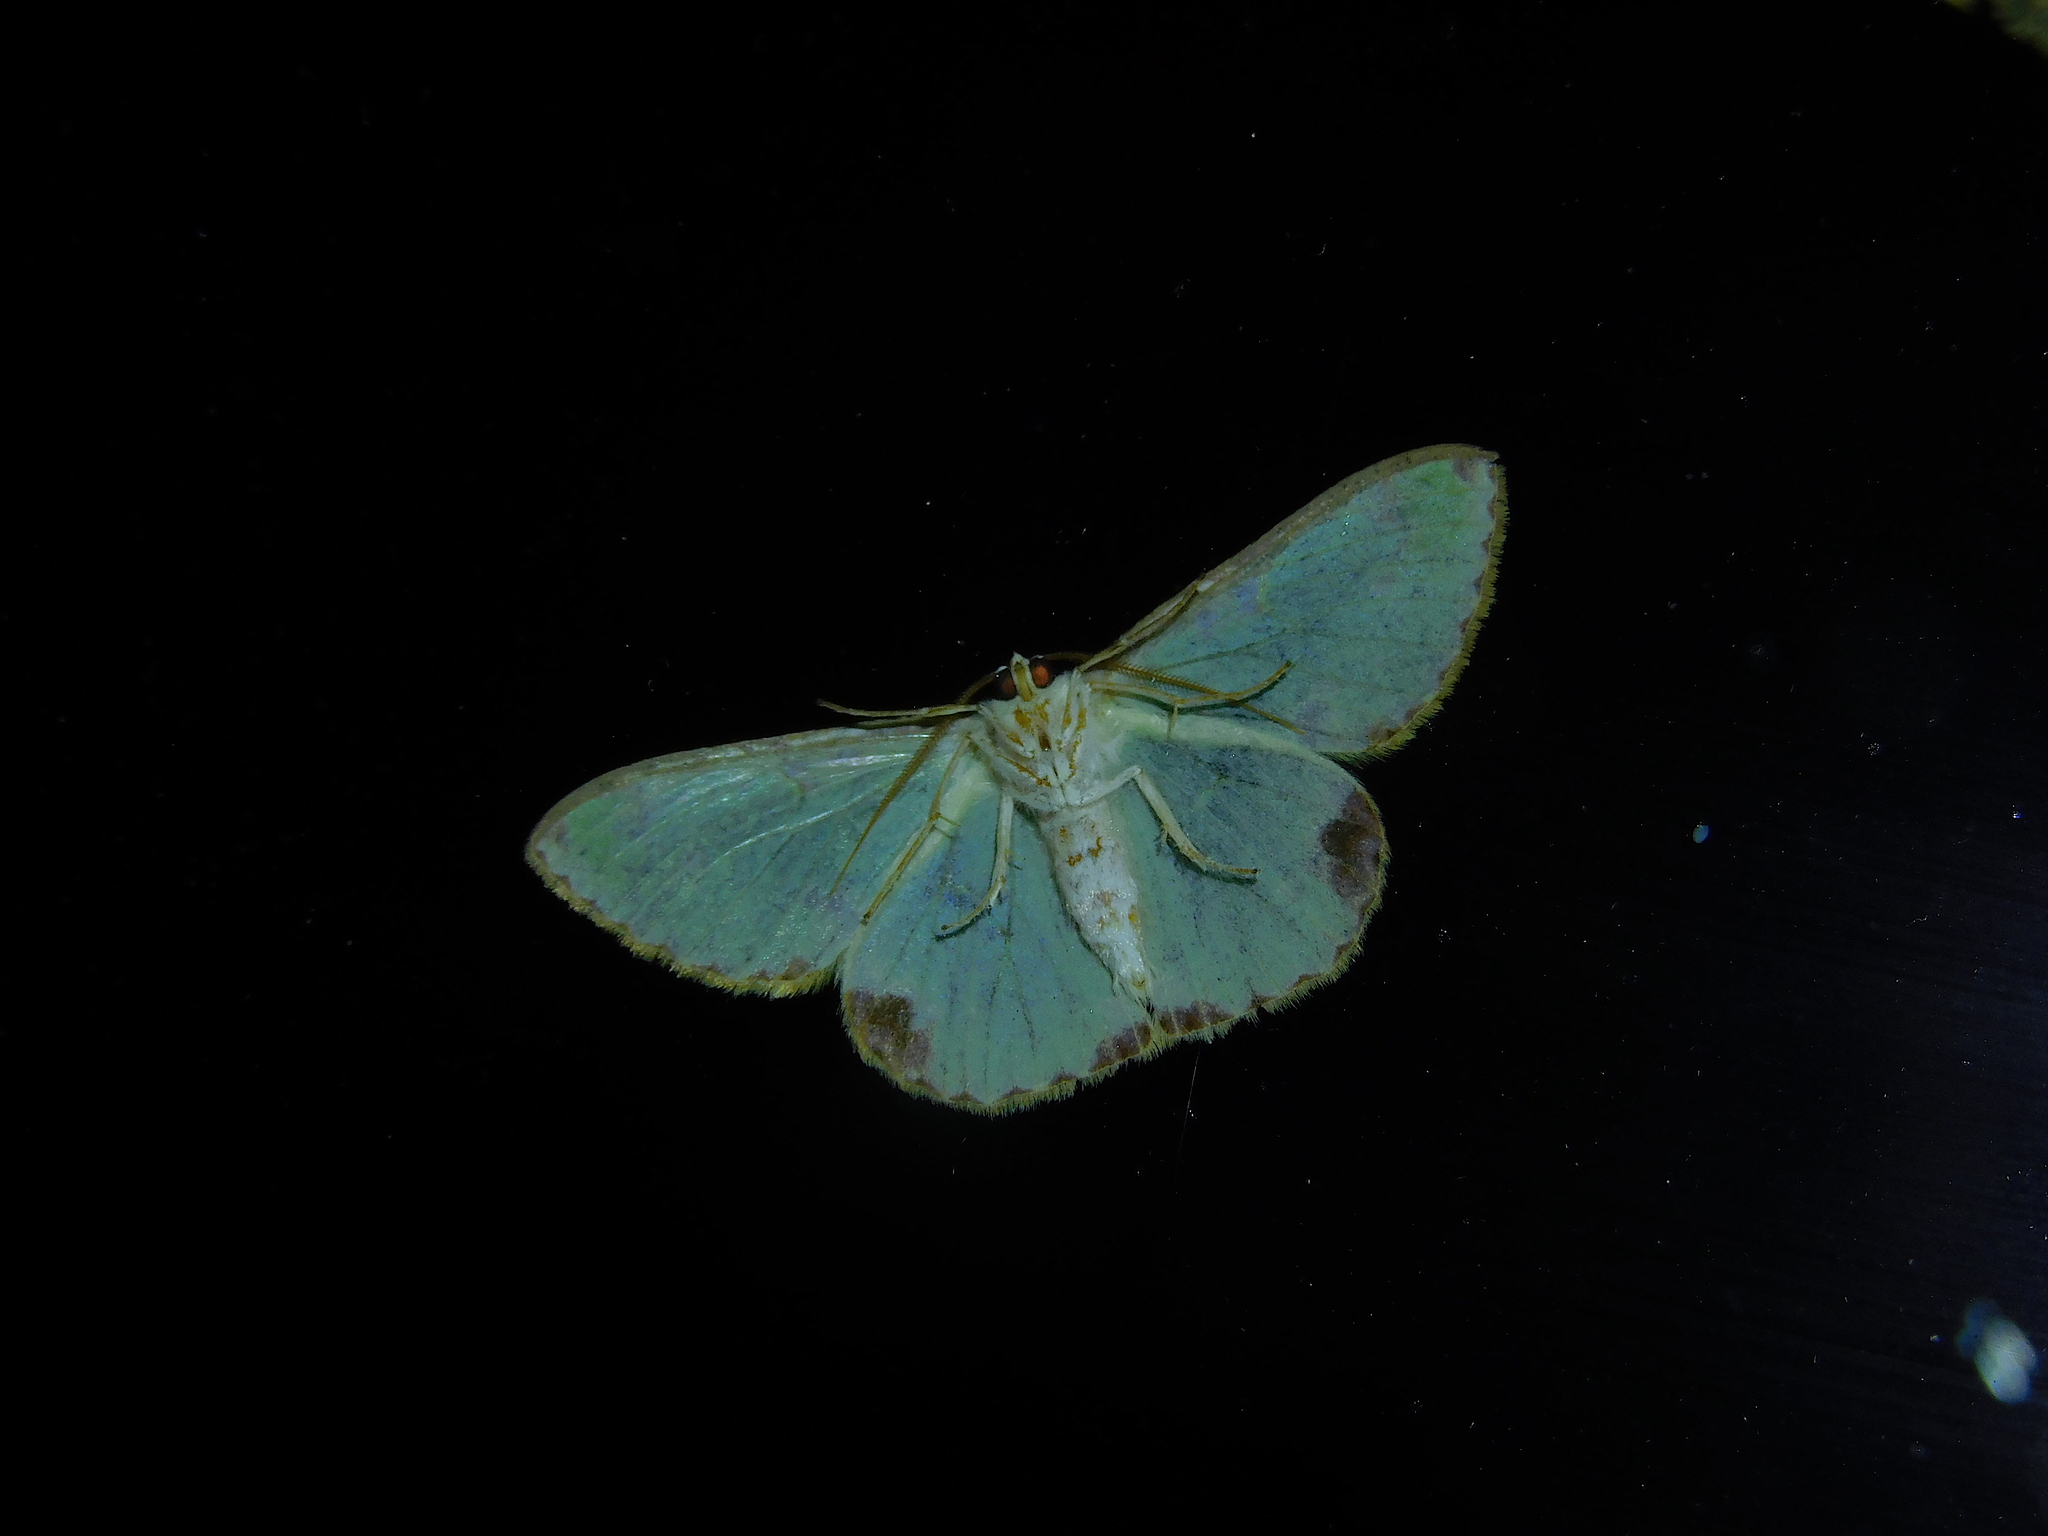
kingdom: Animalia
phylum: Arthropoda
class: Insecta
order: Lepidoptera
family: Geometridae
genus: Eucyclodes
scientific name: Eucyclodes buprestaria
